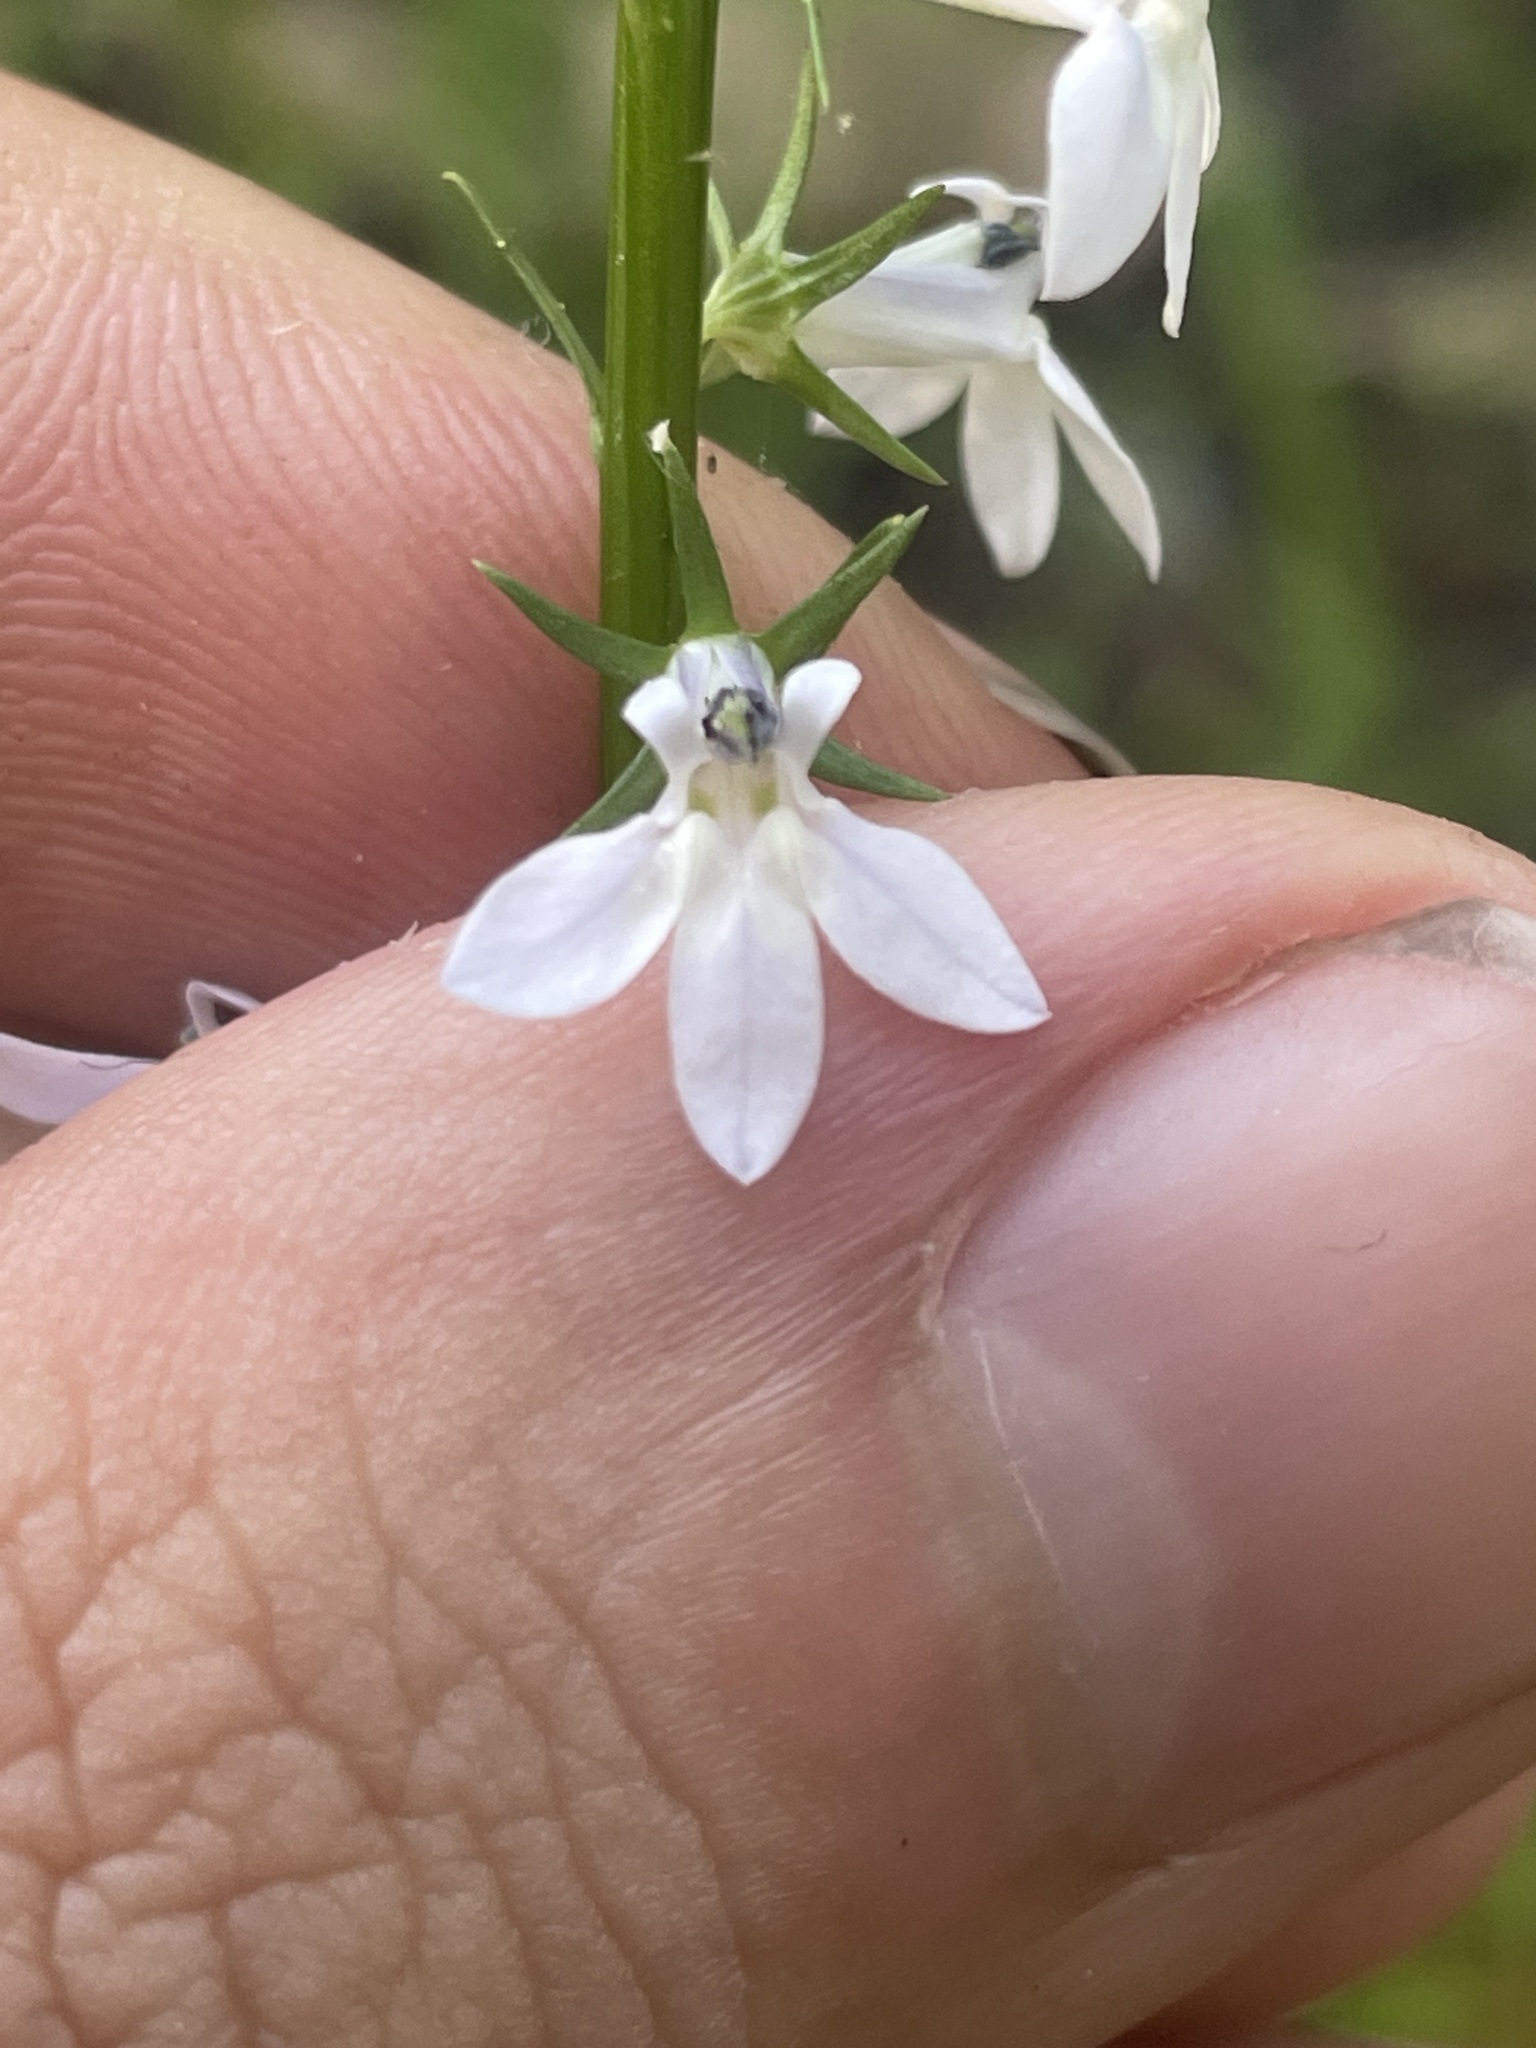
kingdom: Plantae
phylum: Tracheophyta
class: Magnoliopsida
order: Asterales
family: Campanulaceae
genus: Lobelia
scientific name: Lobelia spicata
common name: Pale-spike lobelia
